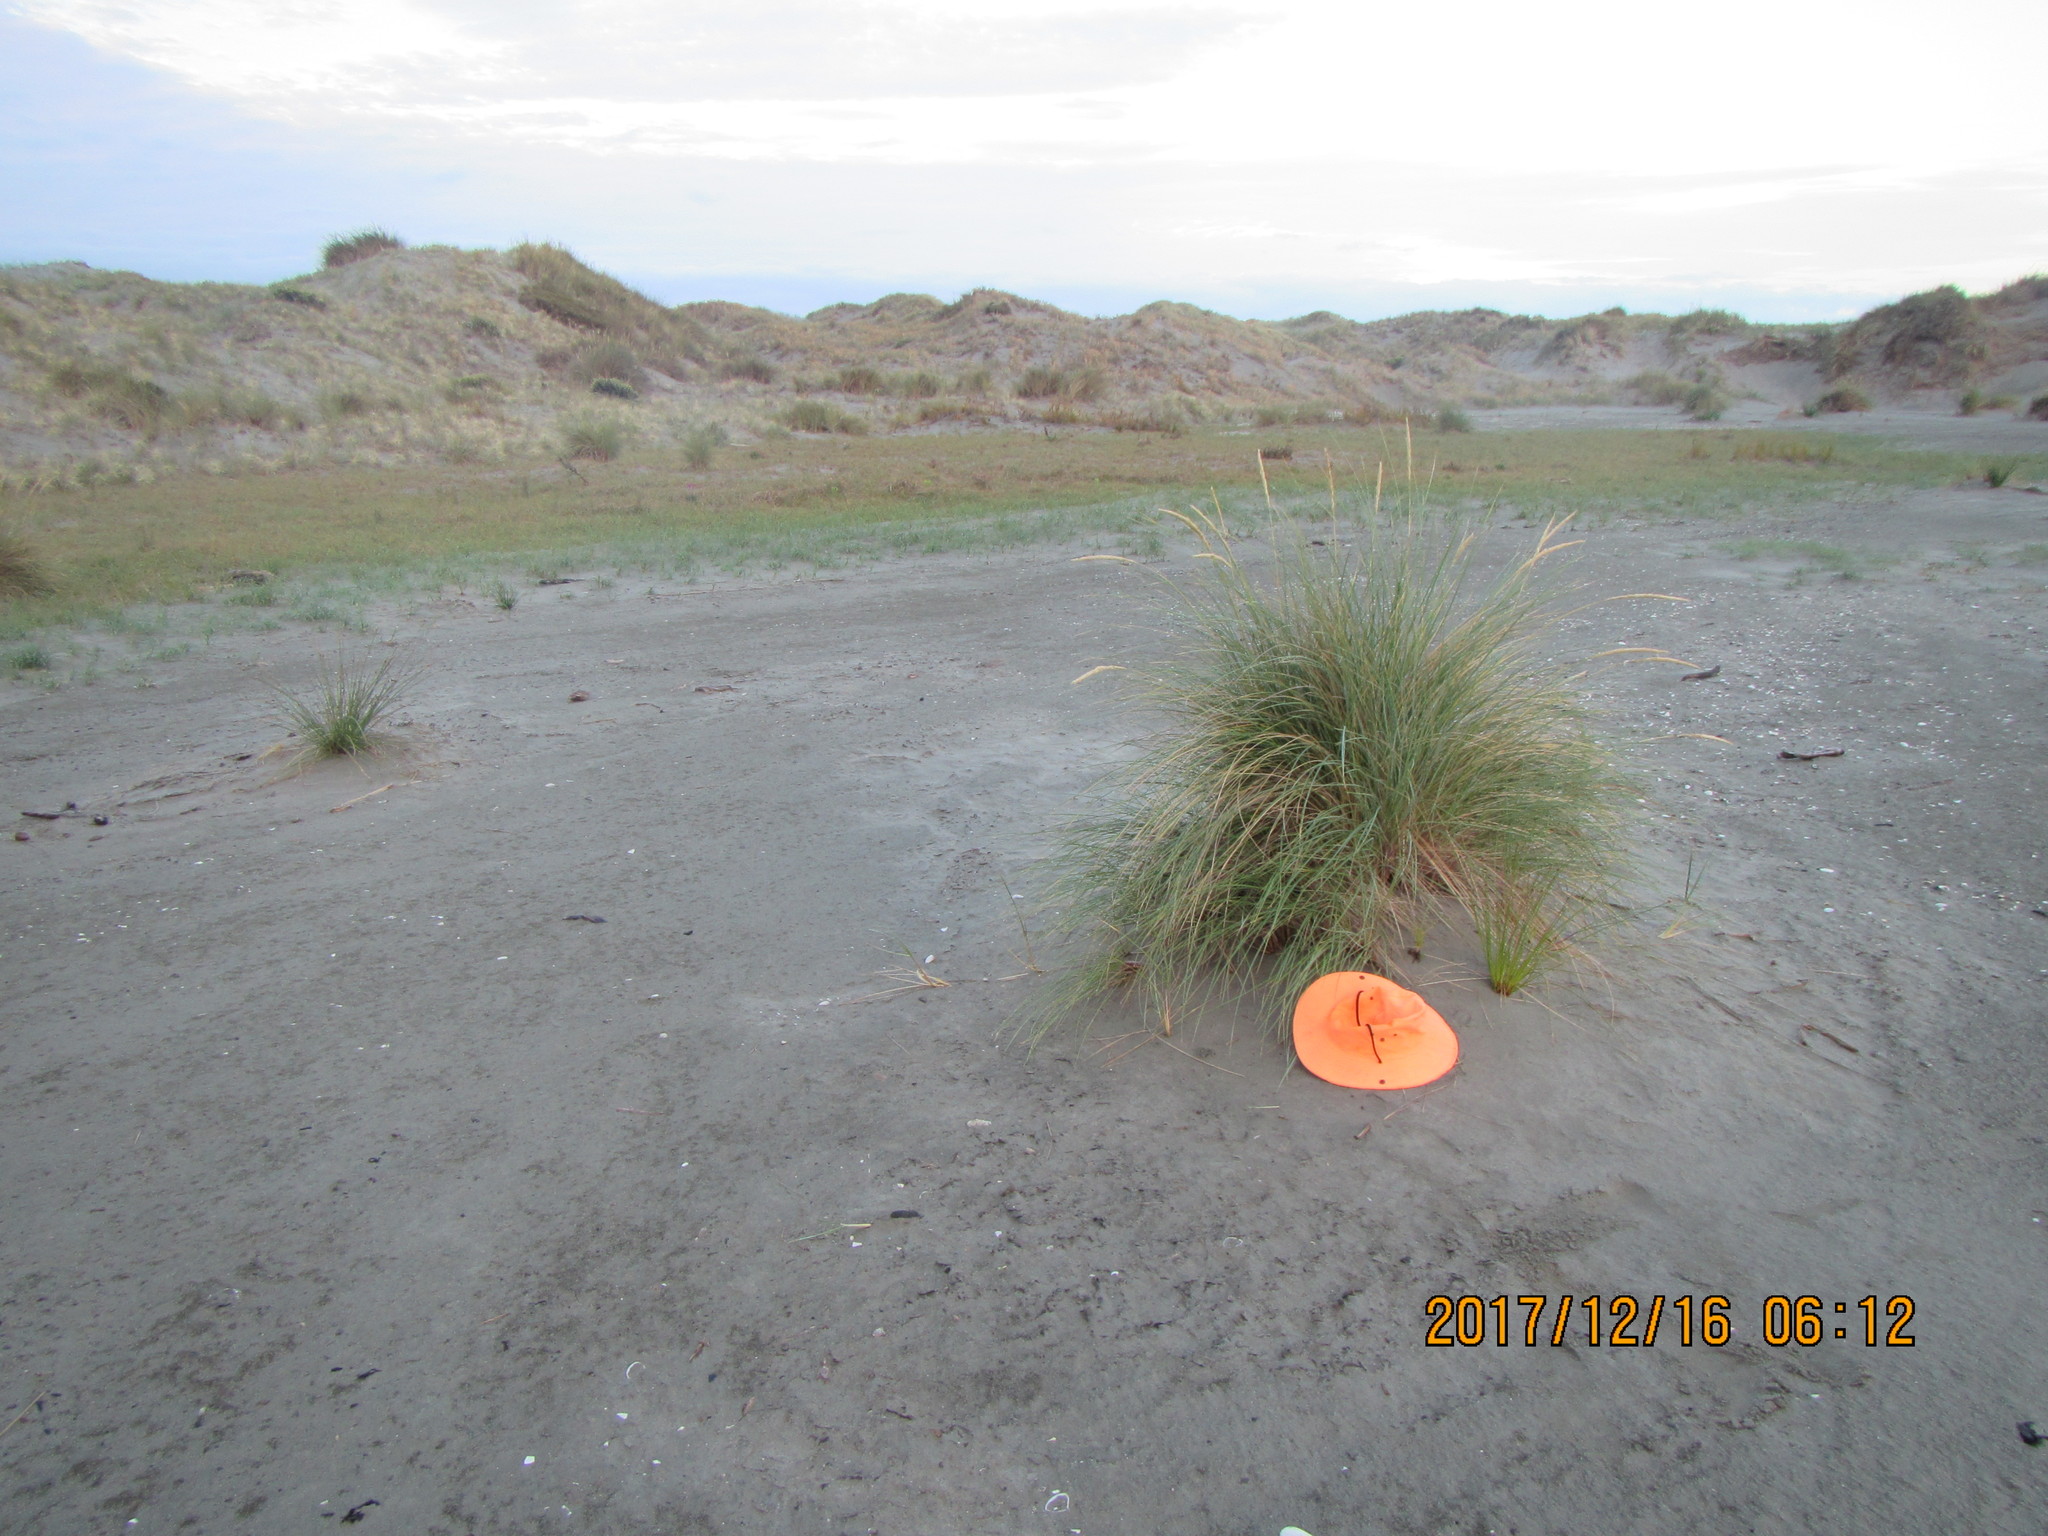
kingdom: Plantae
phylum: Tracheophyta
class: Liliopsida
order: Poales
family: Cyperaceae
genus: Ficinia
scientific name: Ficinia nodosa
